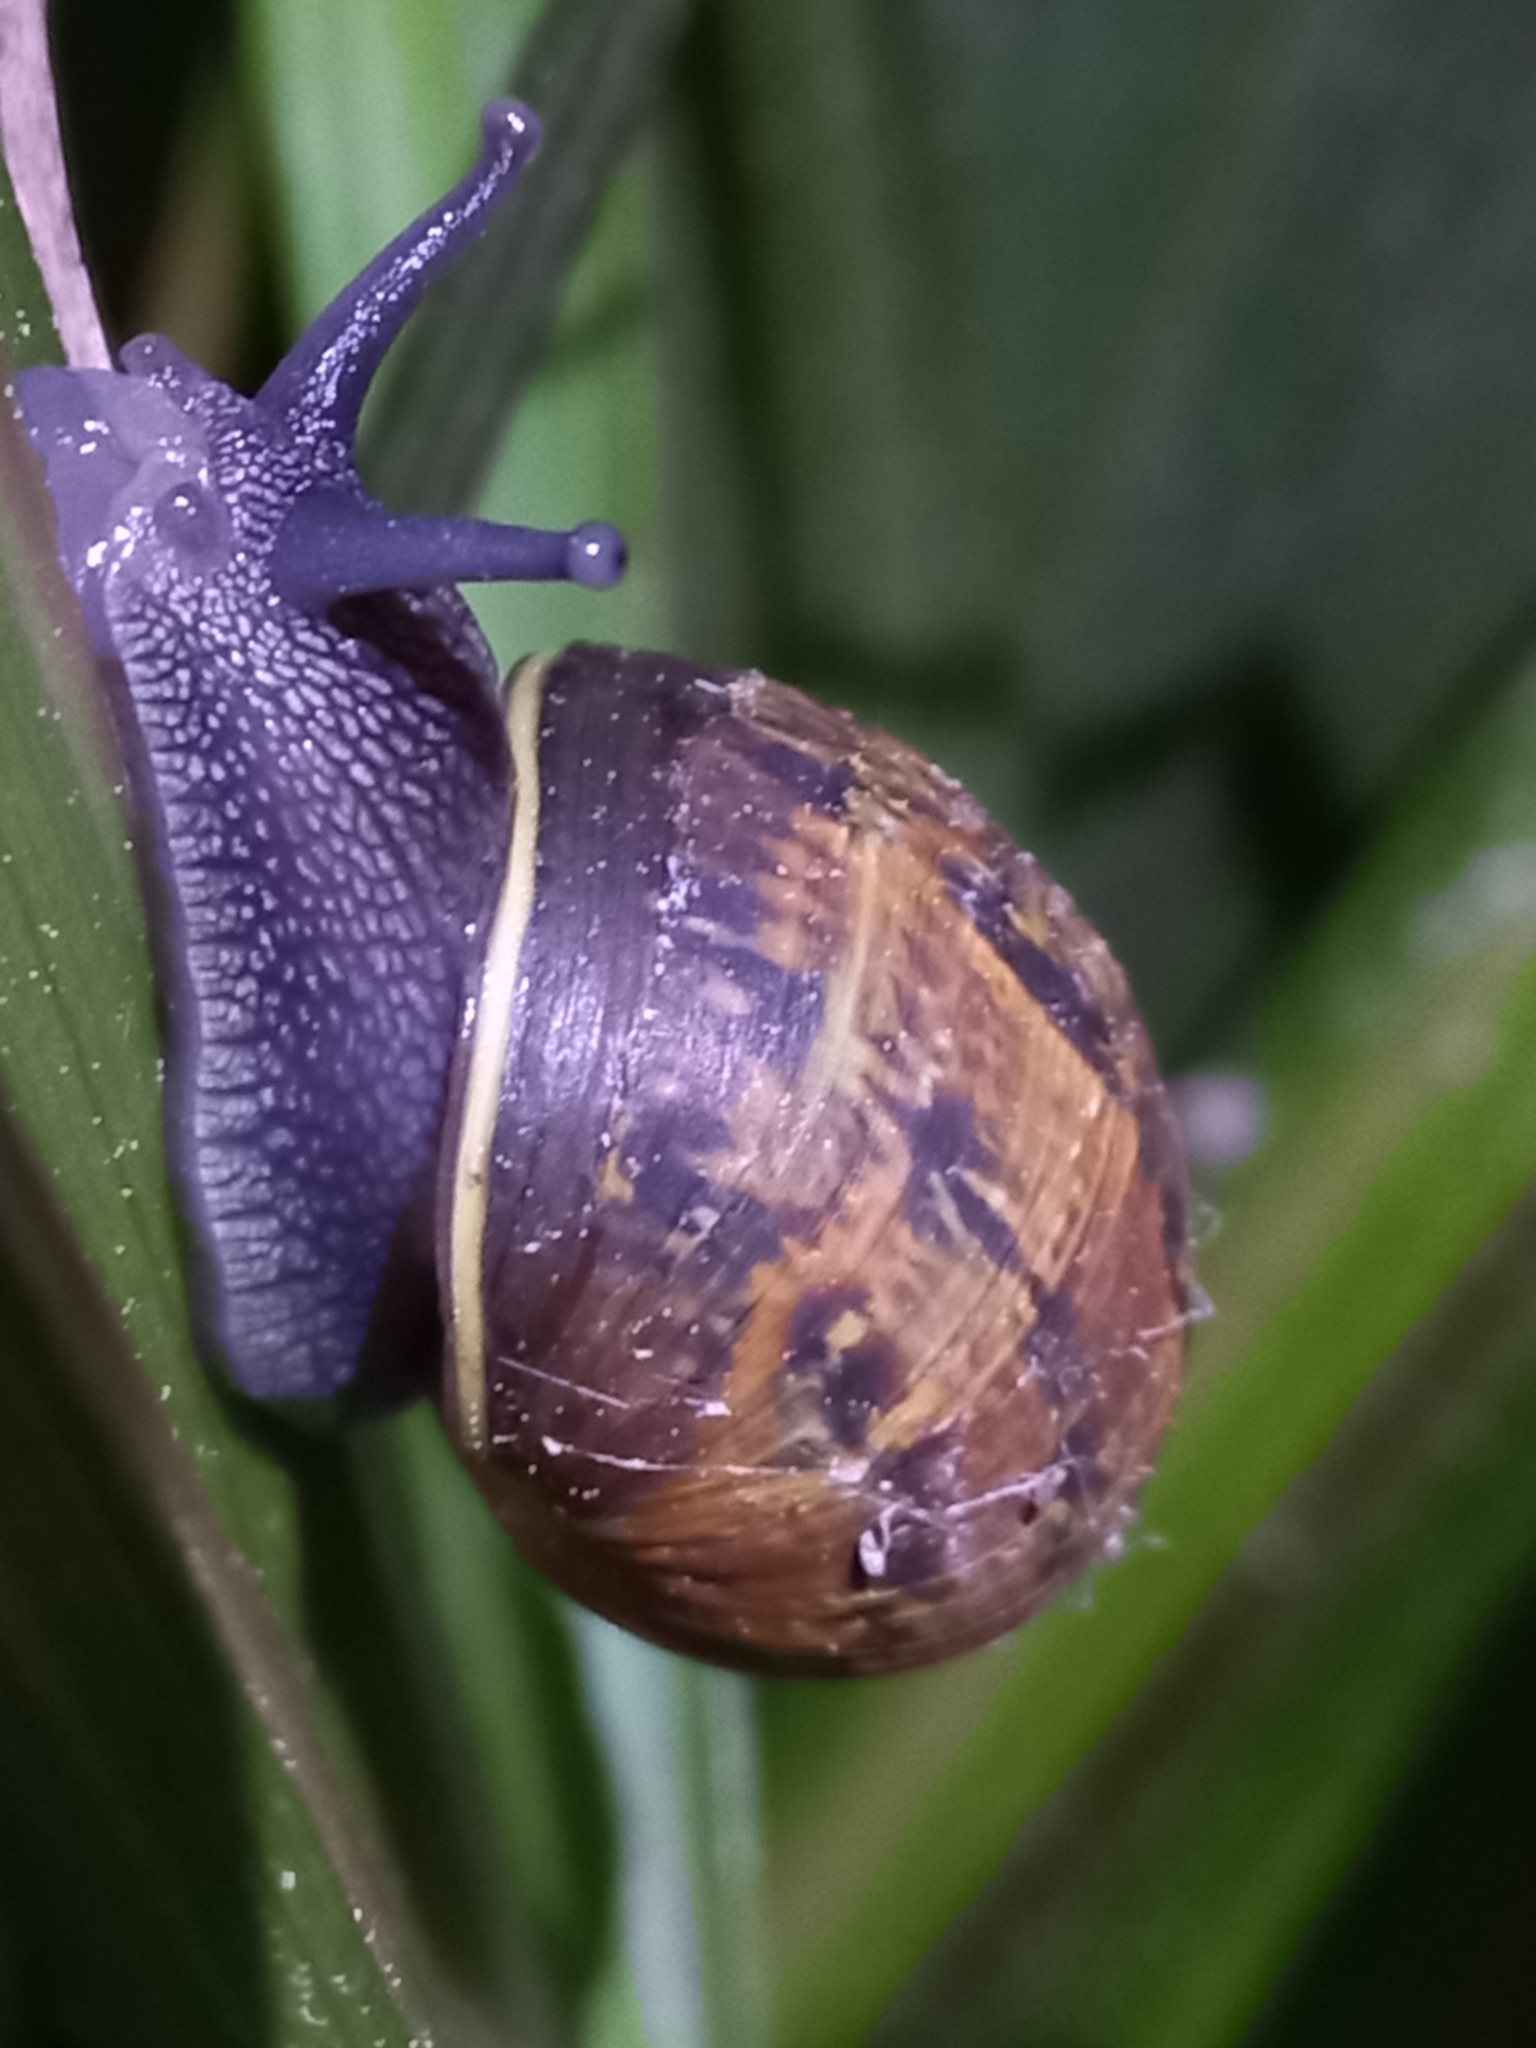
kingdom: Animalia
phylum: Mollusca
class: Gastropoda
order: Stylommatophora
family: Helicidae
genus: Cornu
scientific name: Cornu aspersum
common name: Brown garden snail
